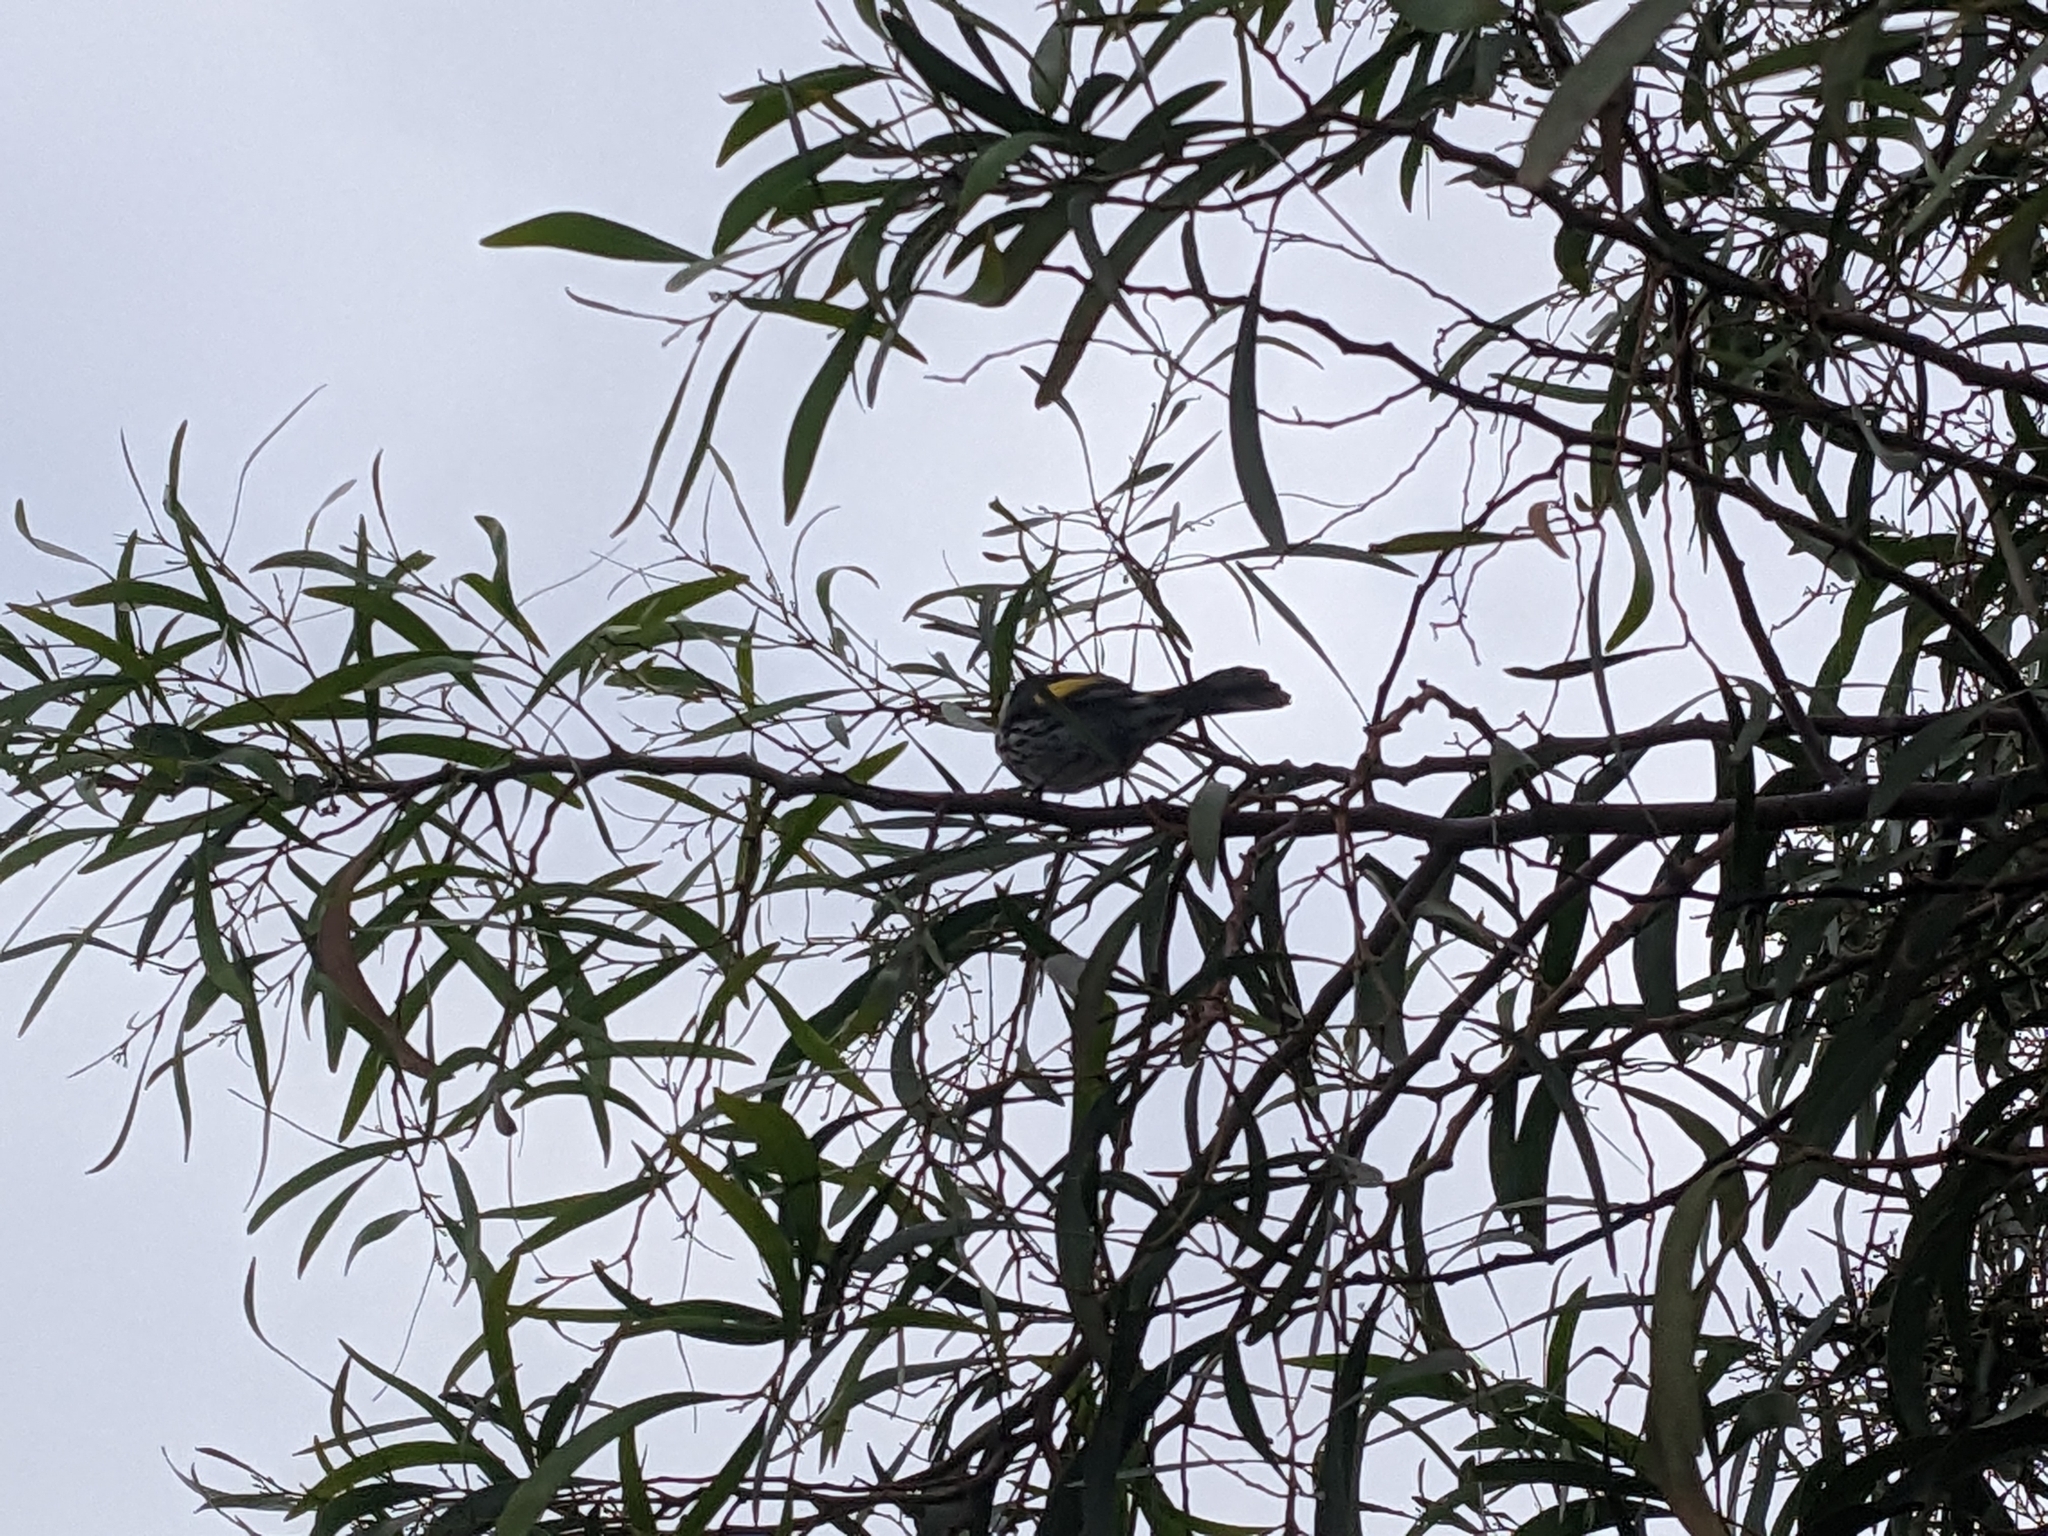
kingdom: Animalia
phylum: Chordata
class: Aves
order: Passeriformes
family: Meliphagidae
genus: Phylidonyris
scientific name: Phylidonyris novaehollandiae
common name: New holland honeyeater
